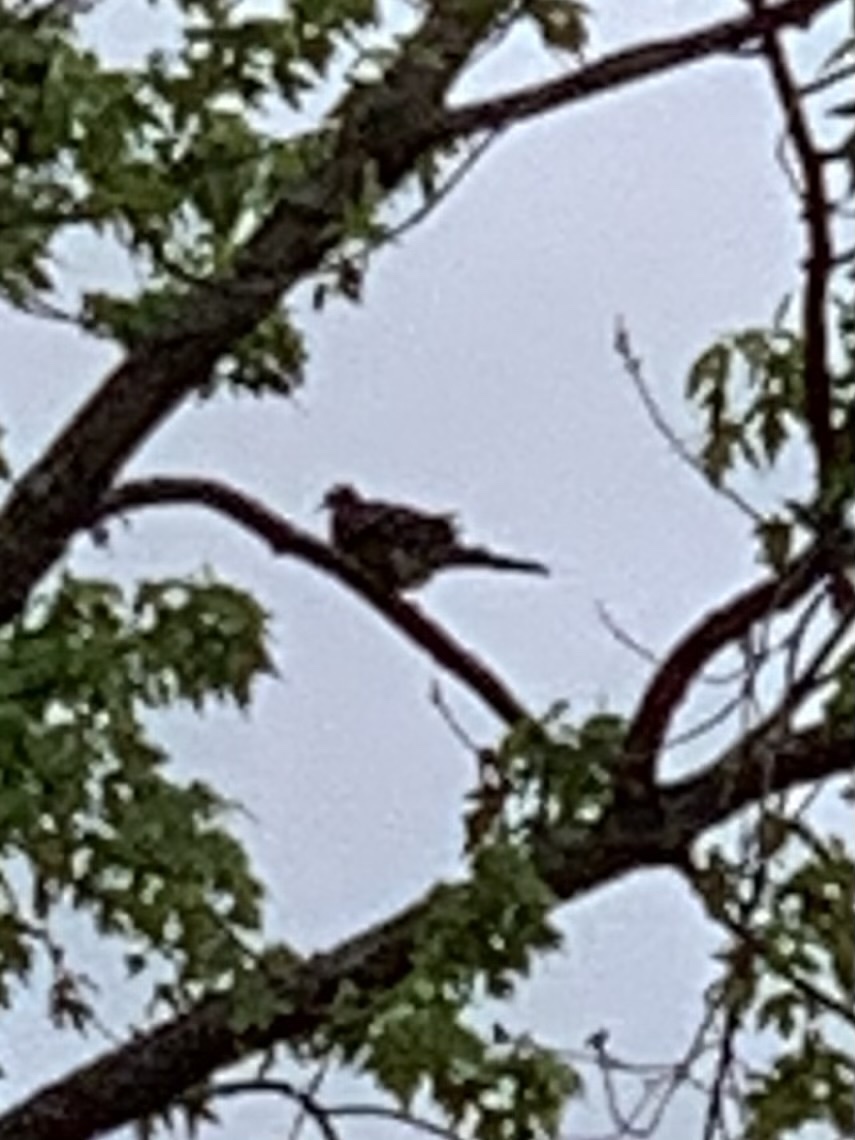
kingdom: Animalia
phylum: Chordata
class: Aves
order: Columbiformes
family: Columbidae
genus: Zenaida
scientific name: Zenaida macroura
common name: Mourning dove
